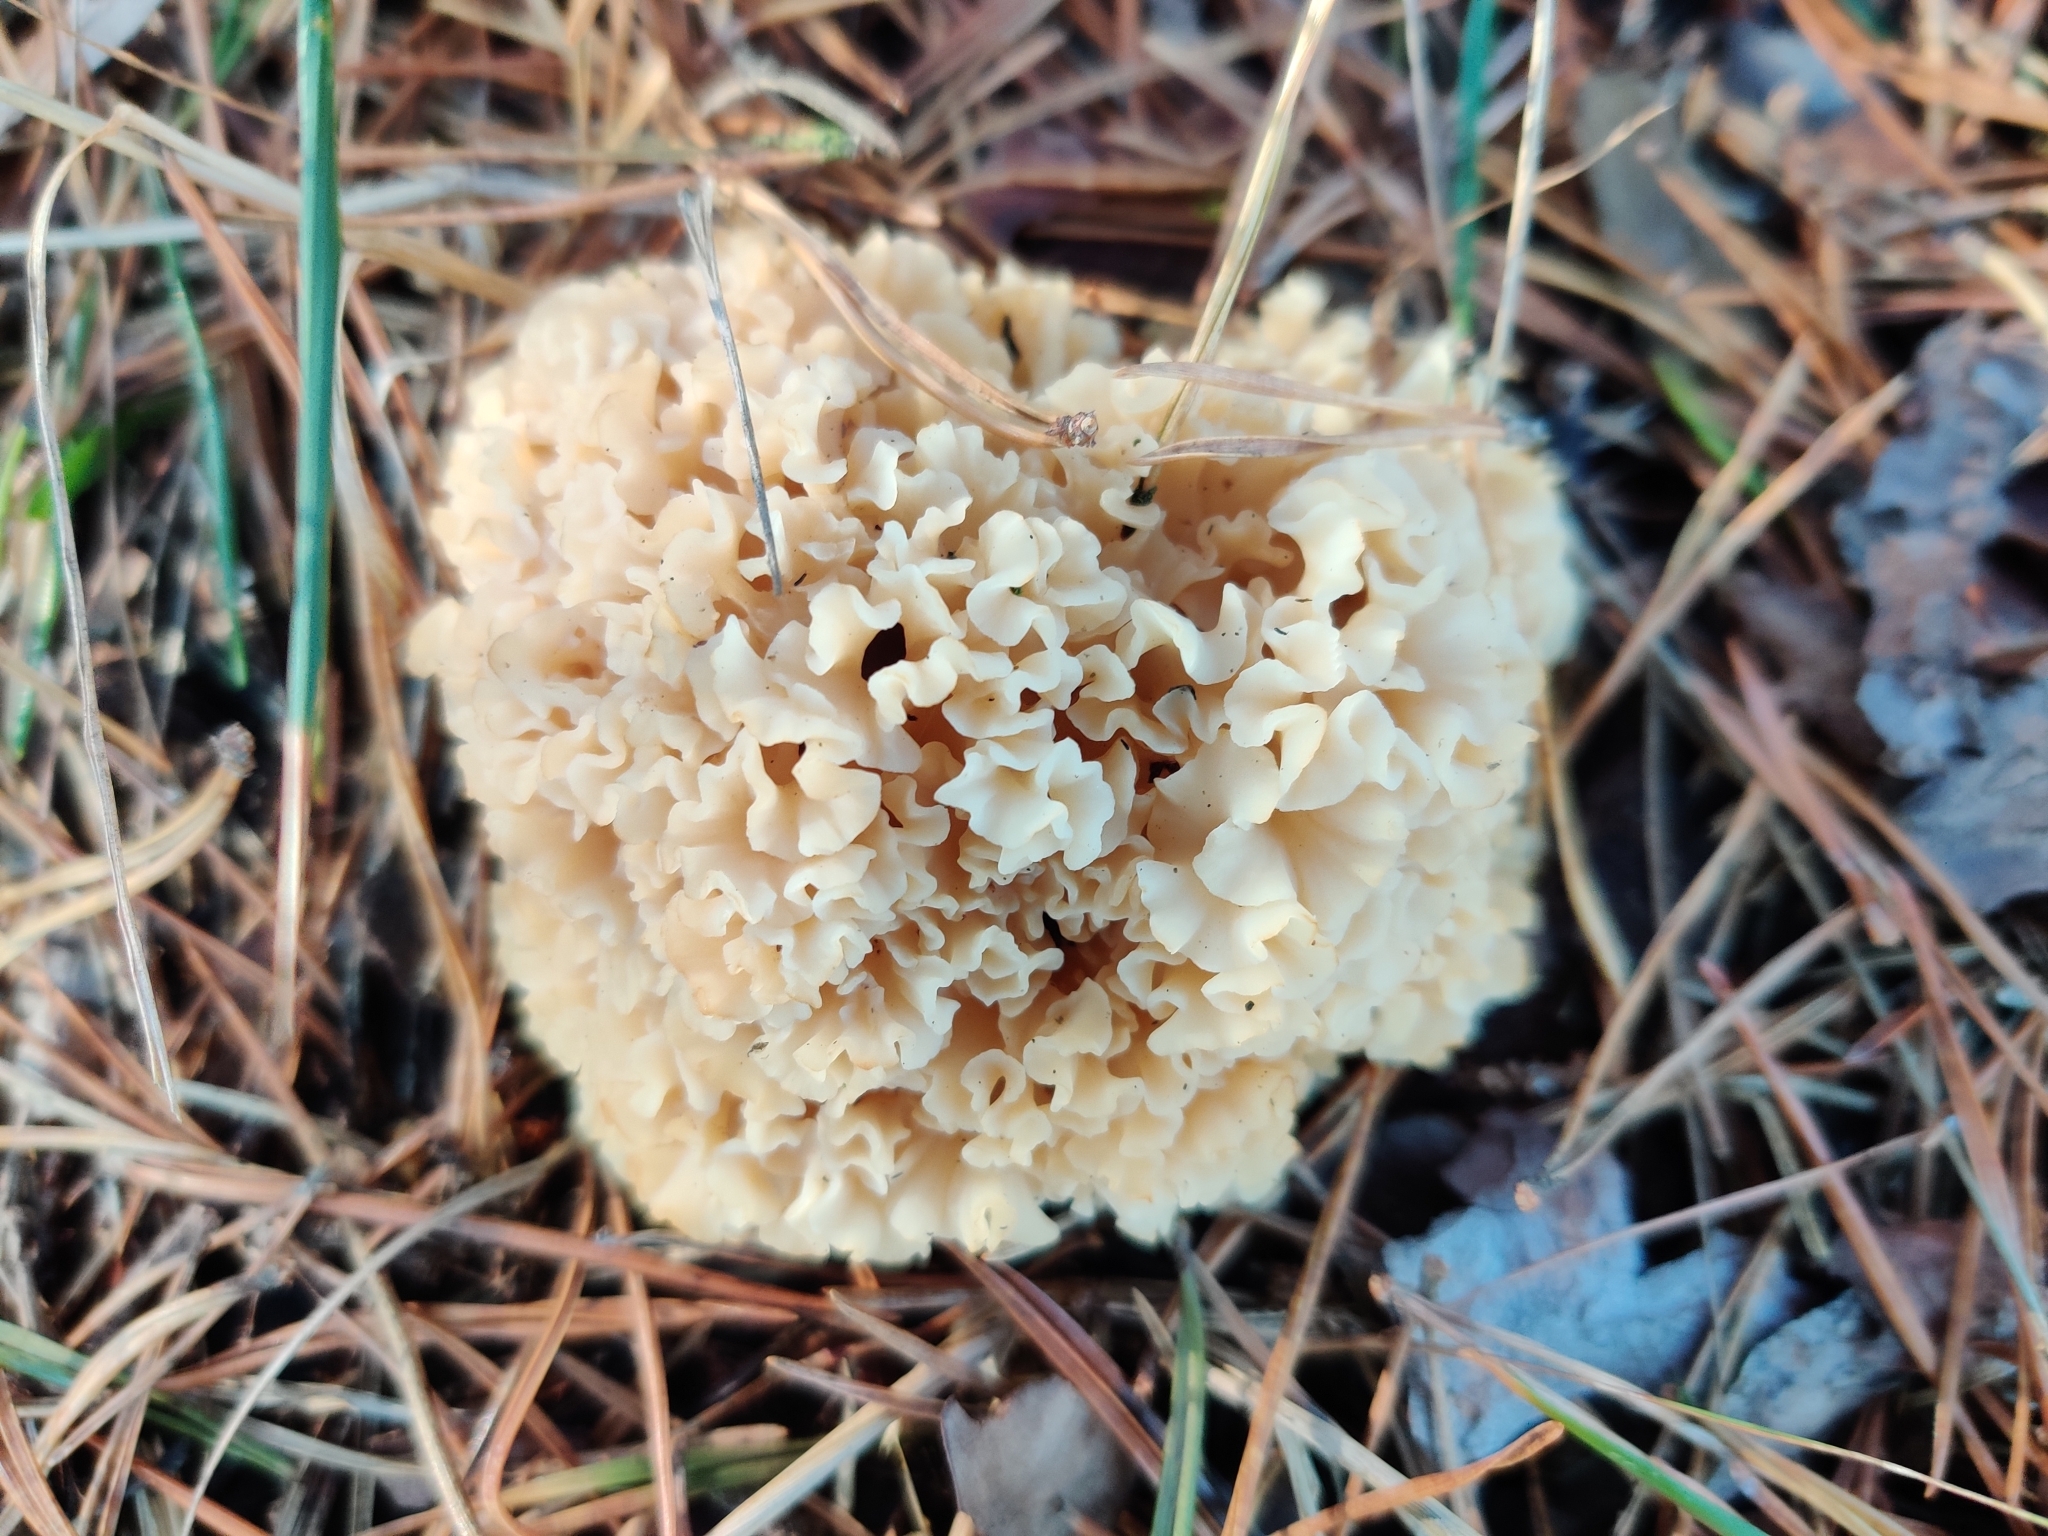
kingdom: Fungi
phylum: Basidiomycota
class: Agaricomycetes
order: Polyporales
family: Sparassidaceae
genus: Sparassis
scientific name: Sparassis crispa
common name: Brain fungus
